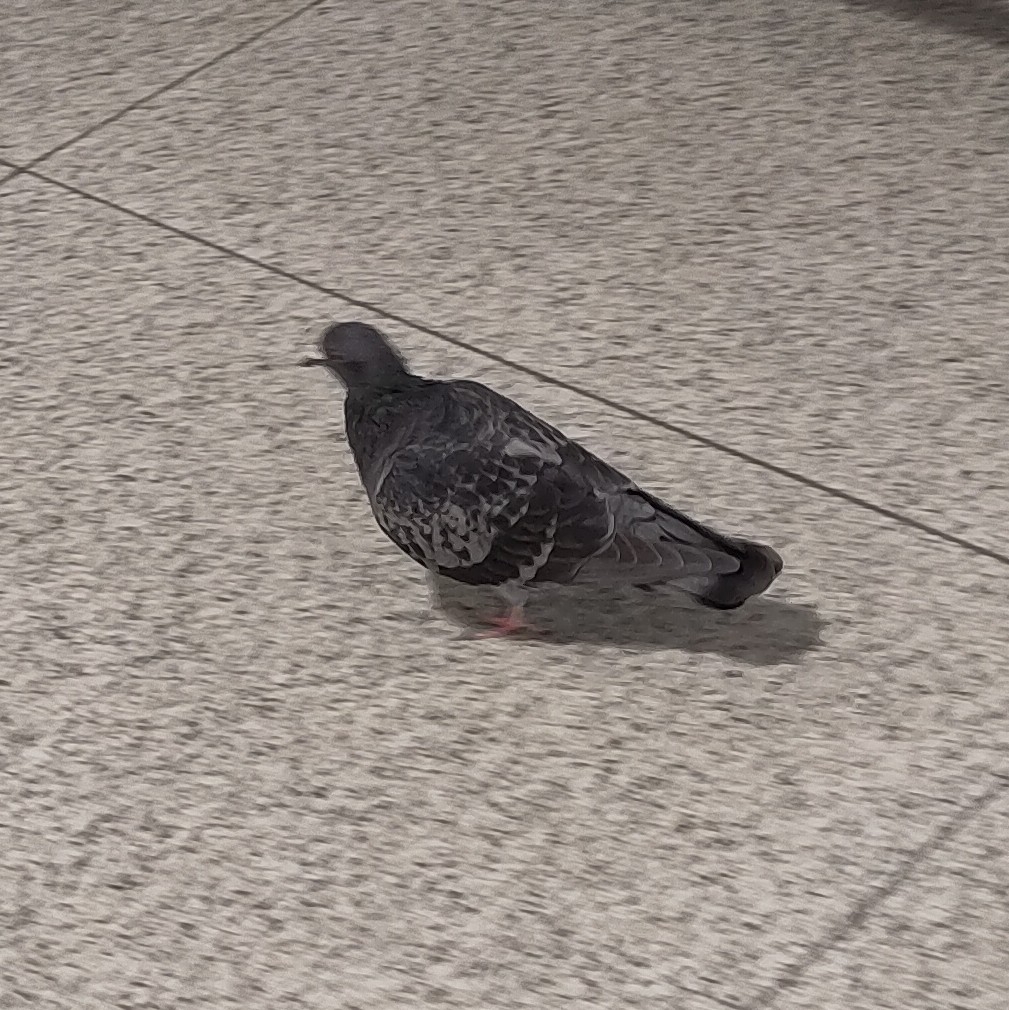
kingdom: Animalia
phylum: Chordata
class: Aves
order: Columbiformes
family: Columbidae
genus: Columba
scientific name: Columba livia
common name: Rock pigeon
